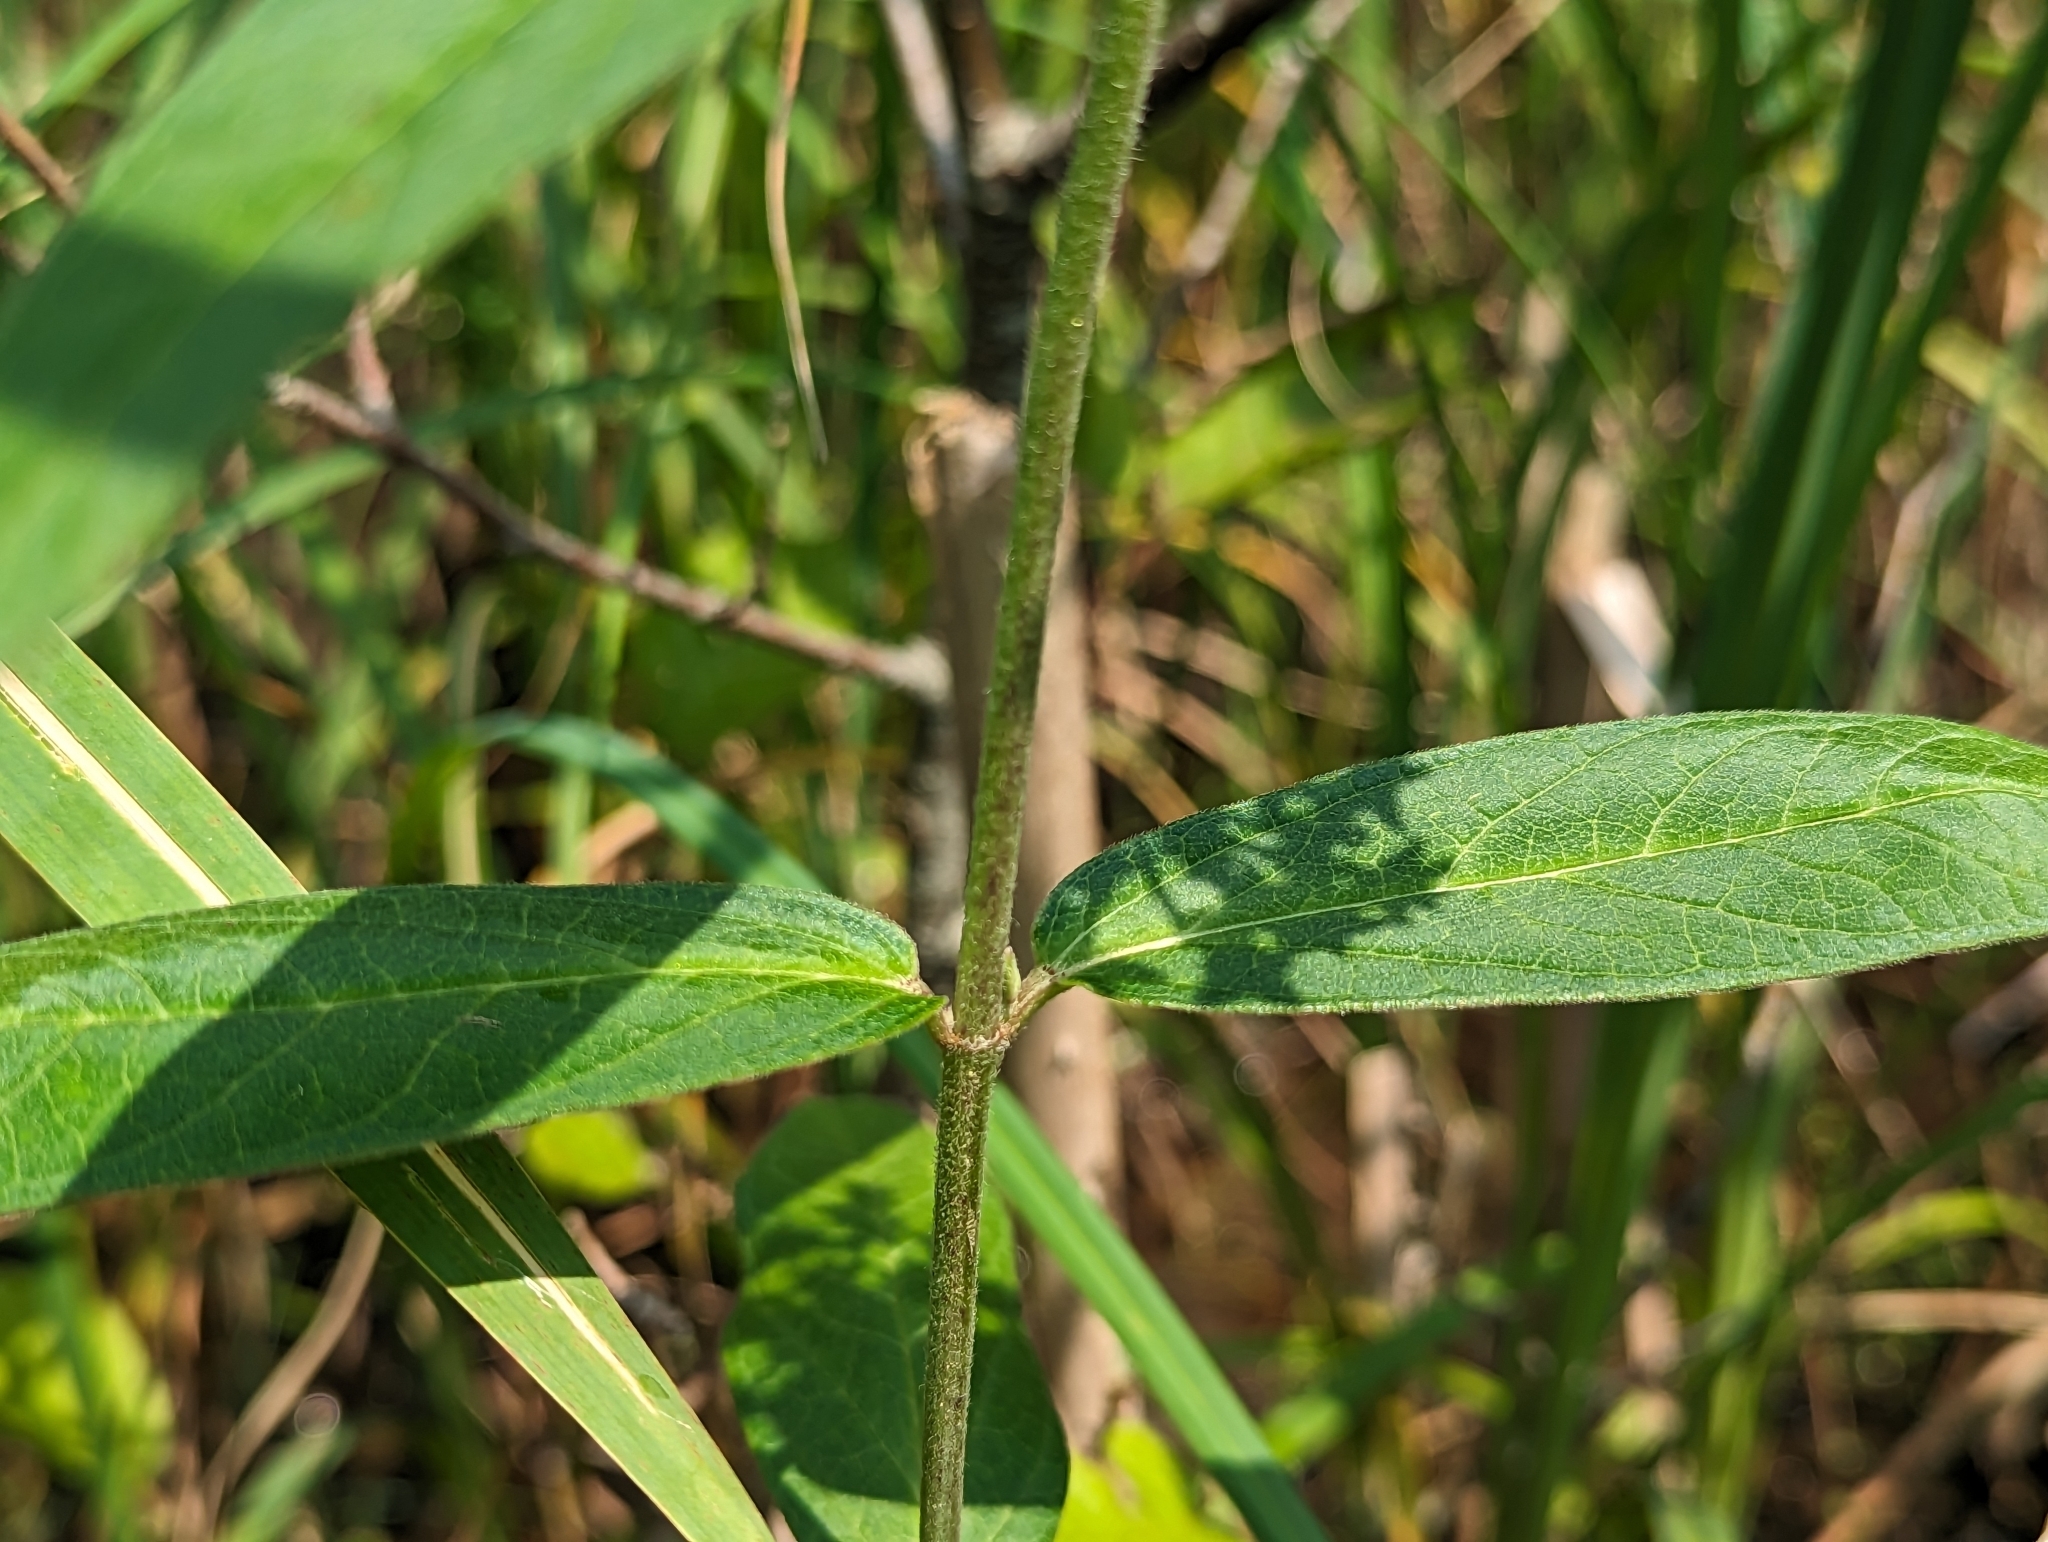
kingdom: Plantae
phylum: Tracheophyta
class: Magnoliopsida
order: Gentianales
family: Apocynaceae
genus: Asclepias
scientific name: Asclepias incarnata
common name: Swamp milkweed
